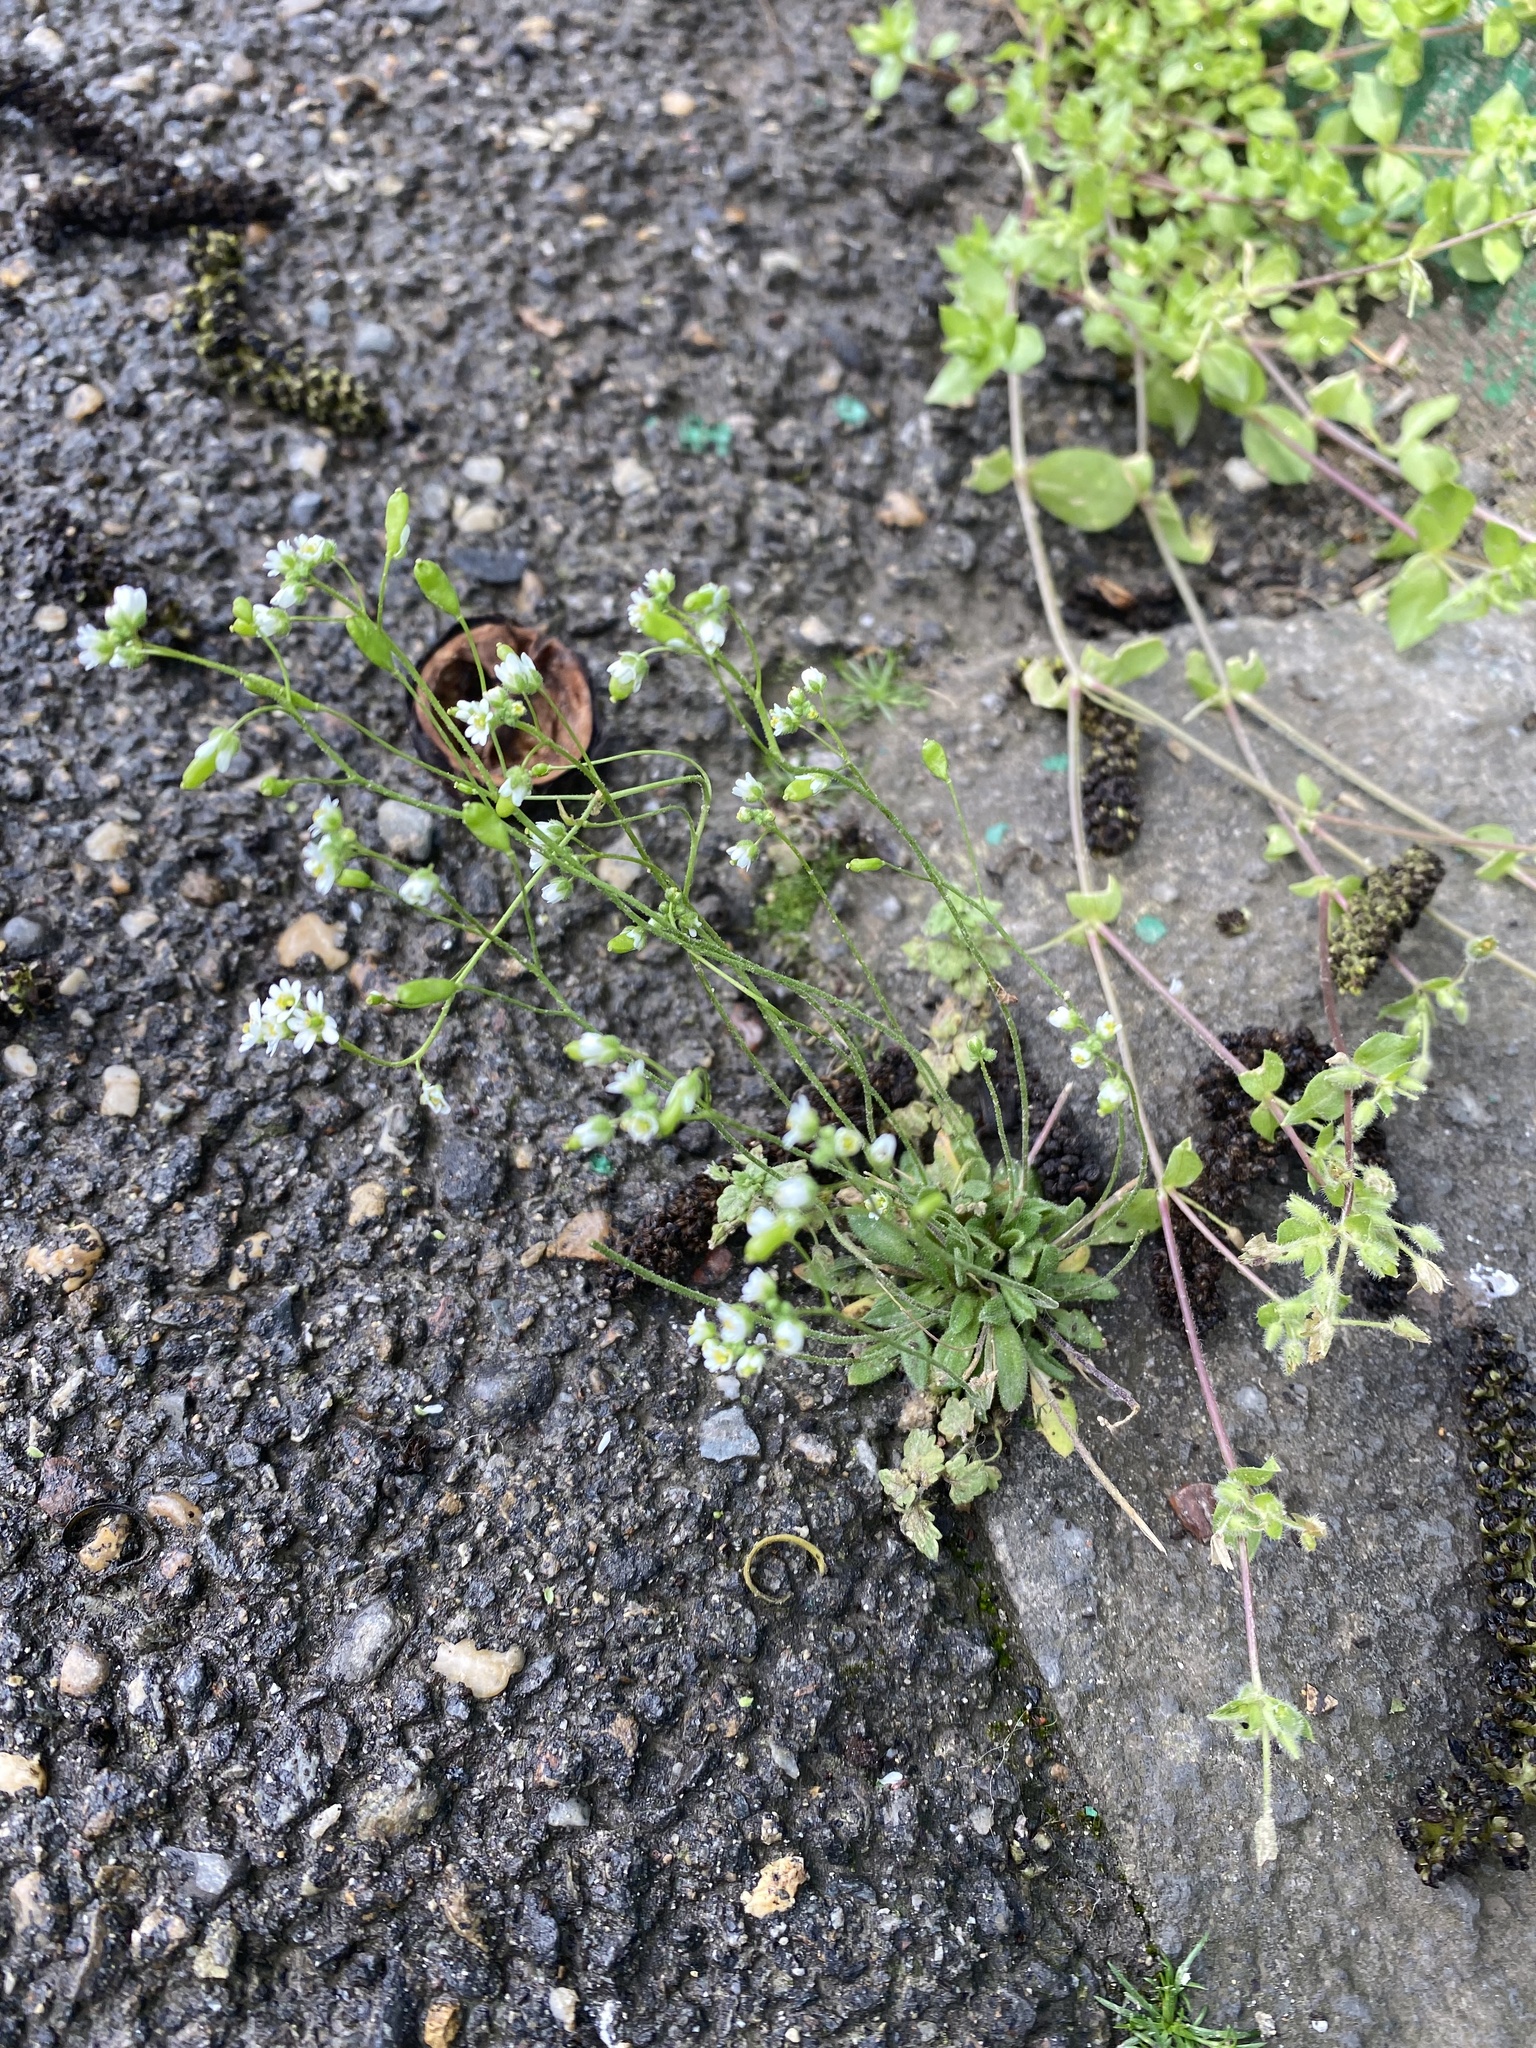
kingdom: Plantae
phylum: Tracheophyta
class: Magnoliopsida
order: Brassicales
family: Brassicaceae
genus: Draba
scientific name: Draba verna
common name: Spring draba
